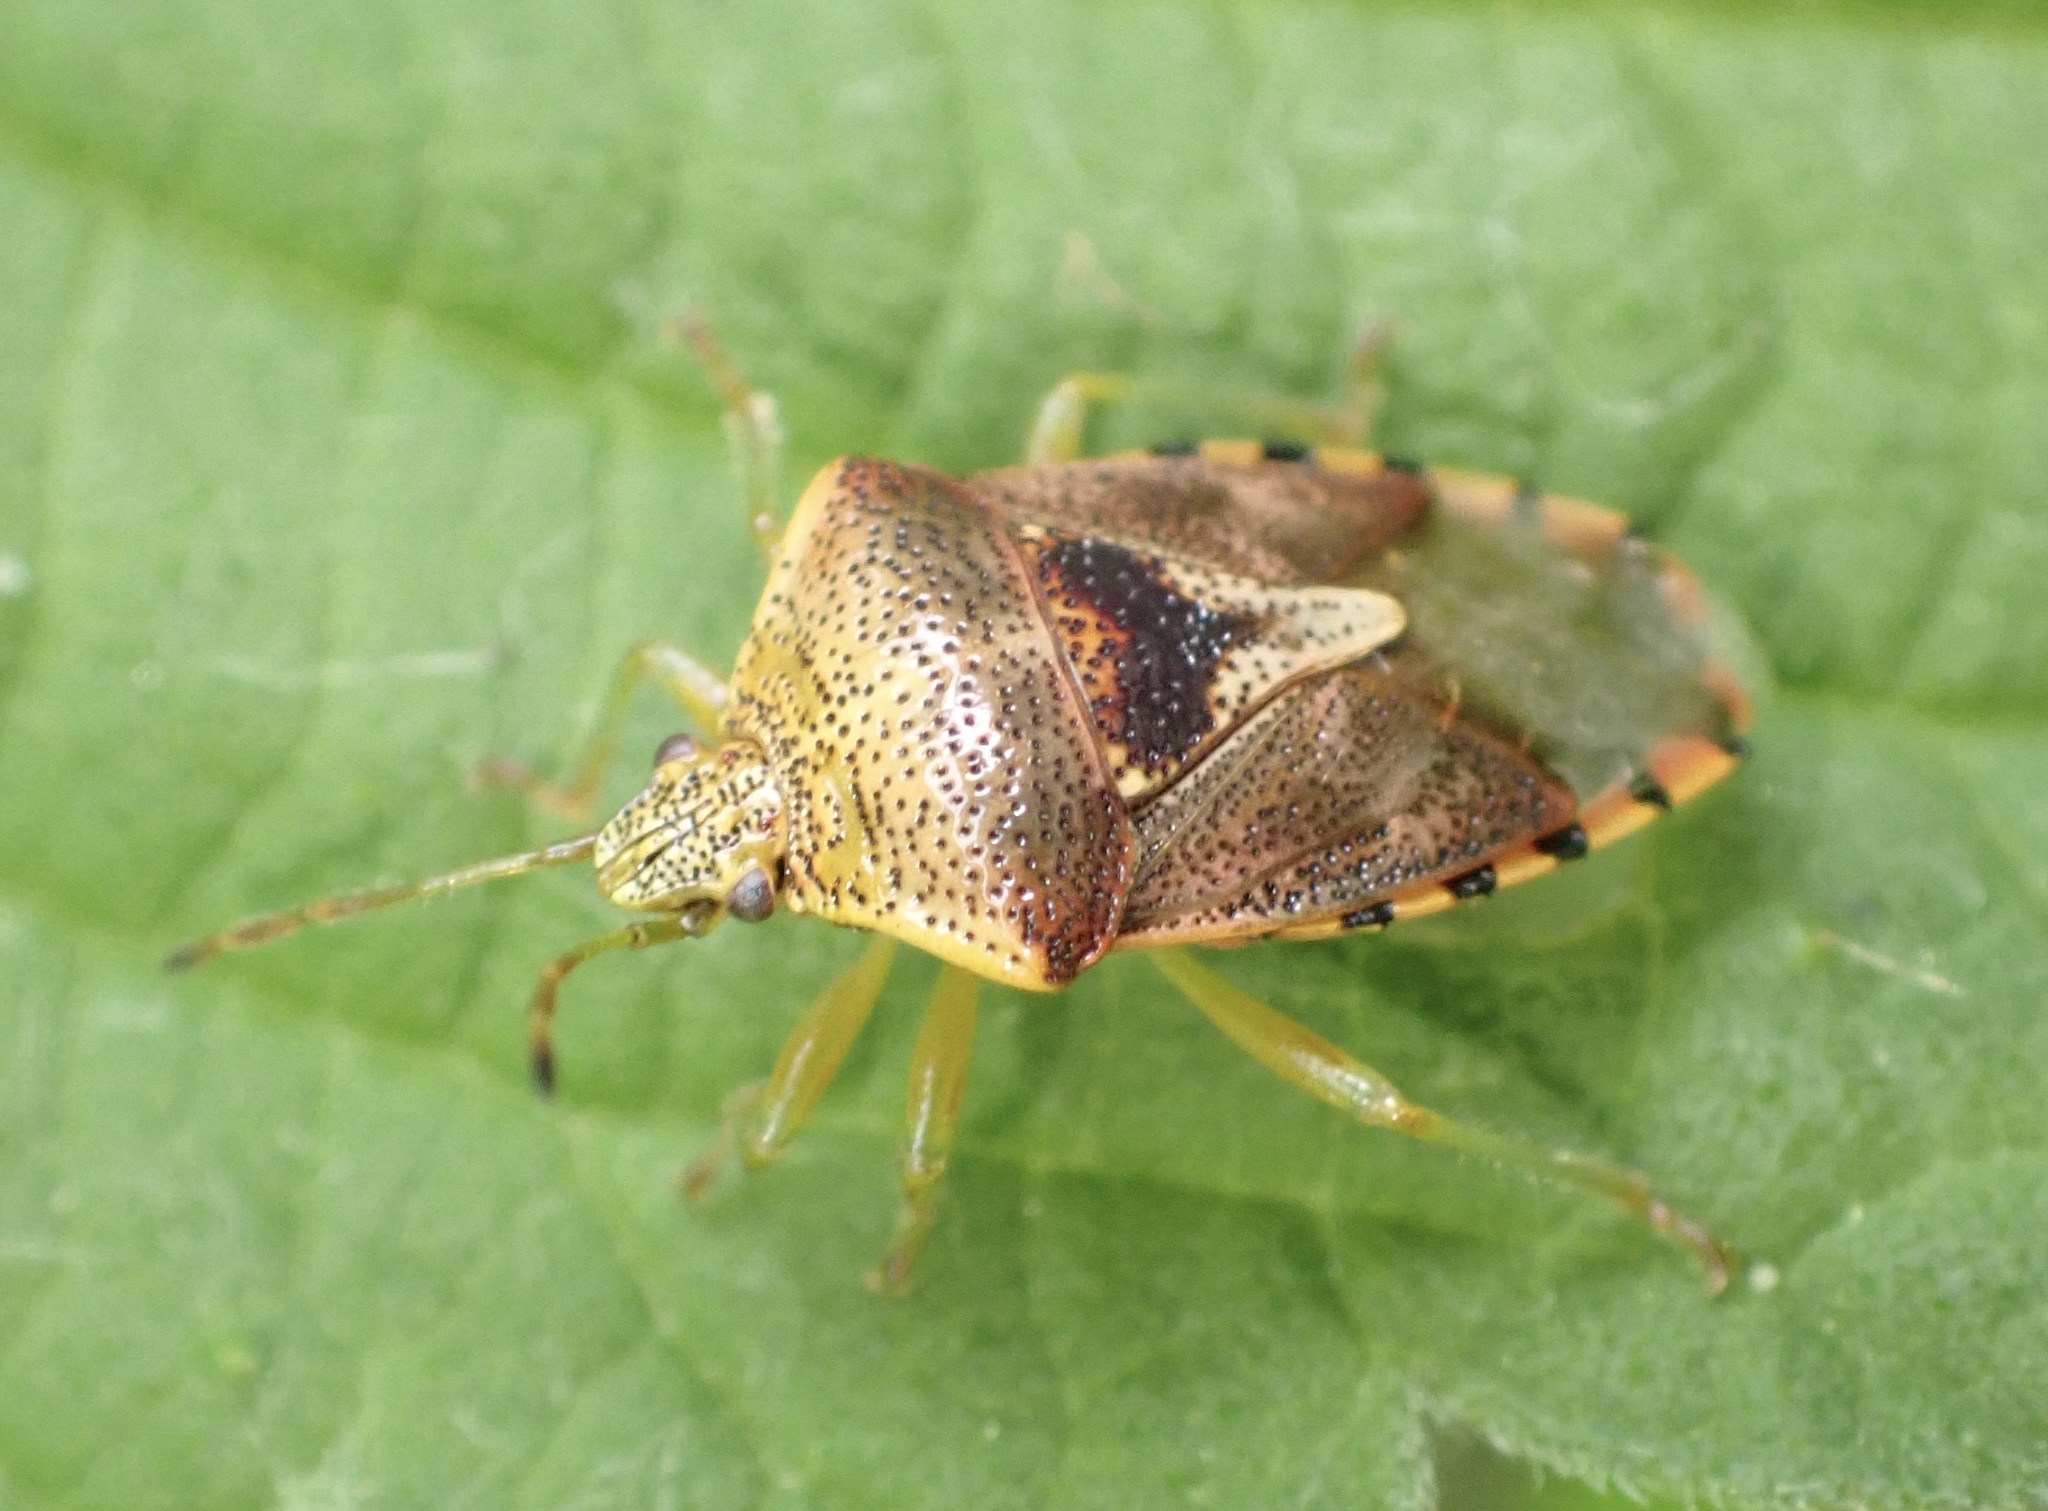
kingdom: Animalia
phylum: Arthropoda
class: Insecta
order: Hemiptera
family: Acanthosomatidae
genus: Elasmucha
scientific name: Elasmucha grisea
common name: Parent bug
